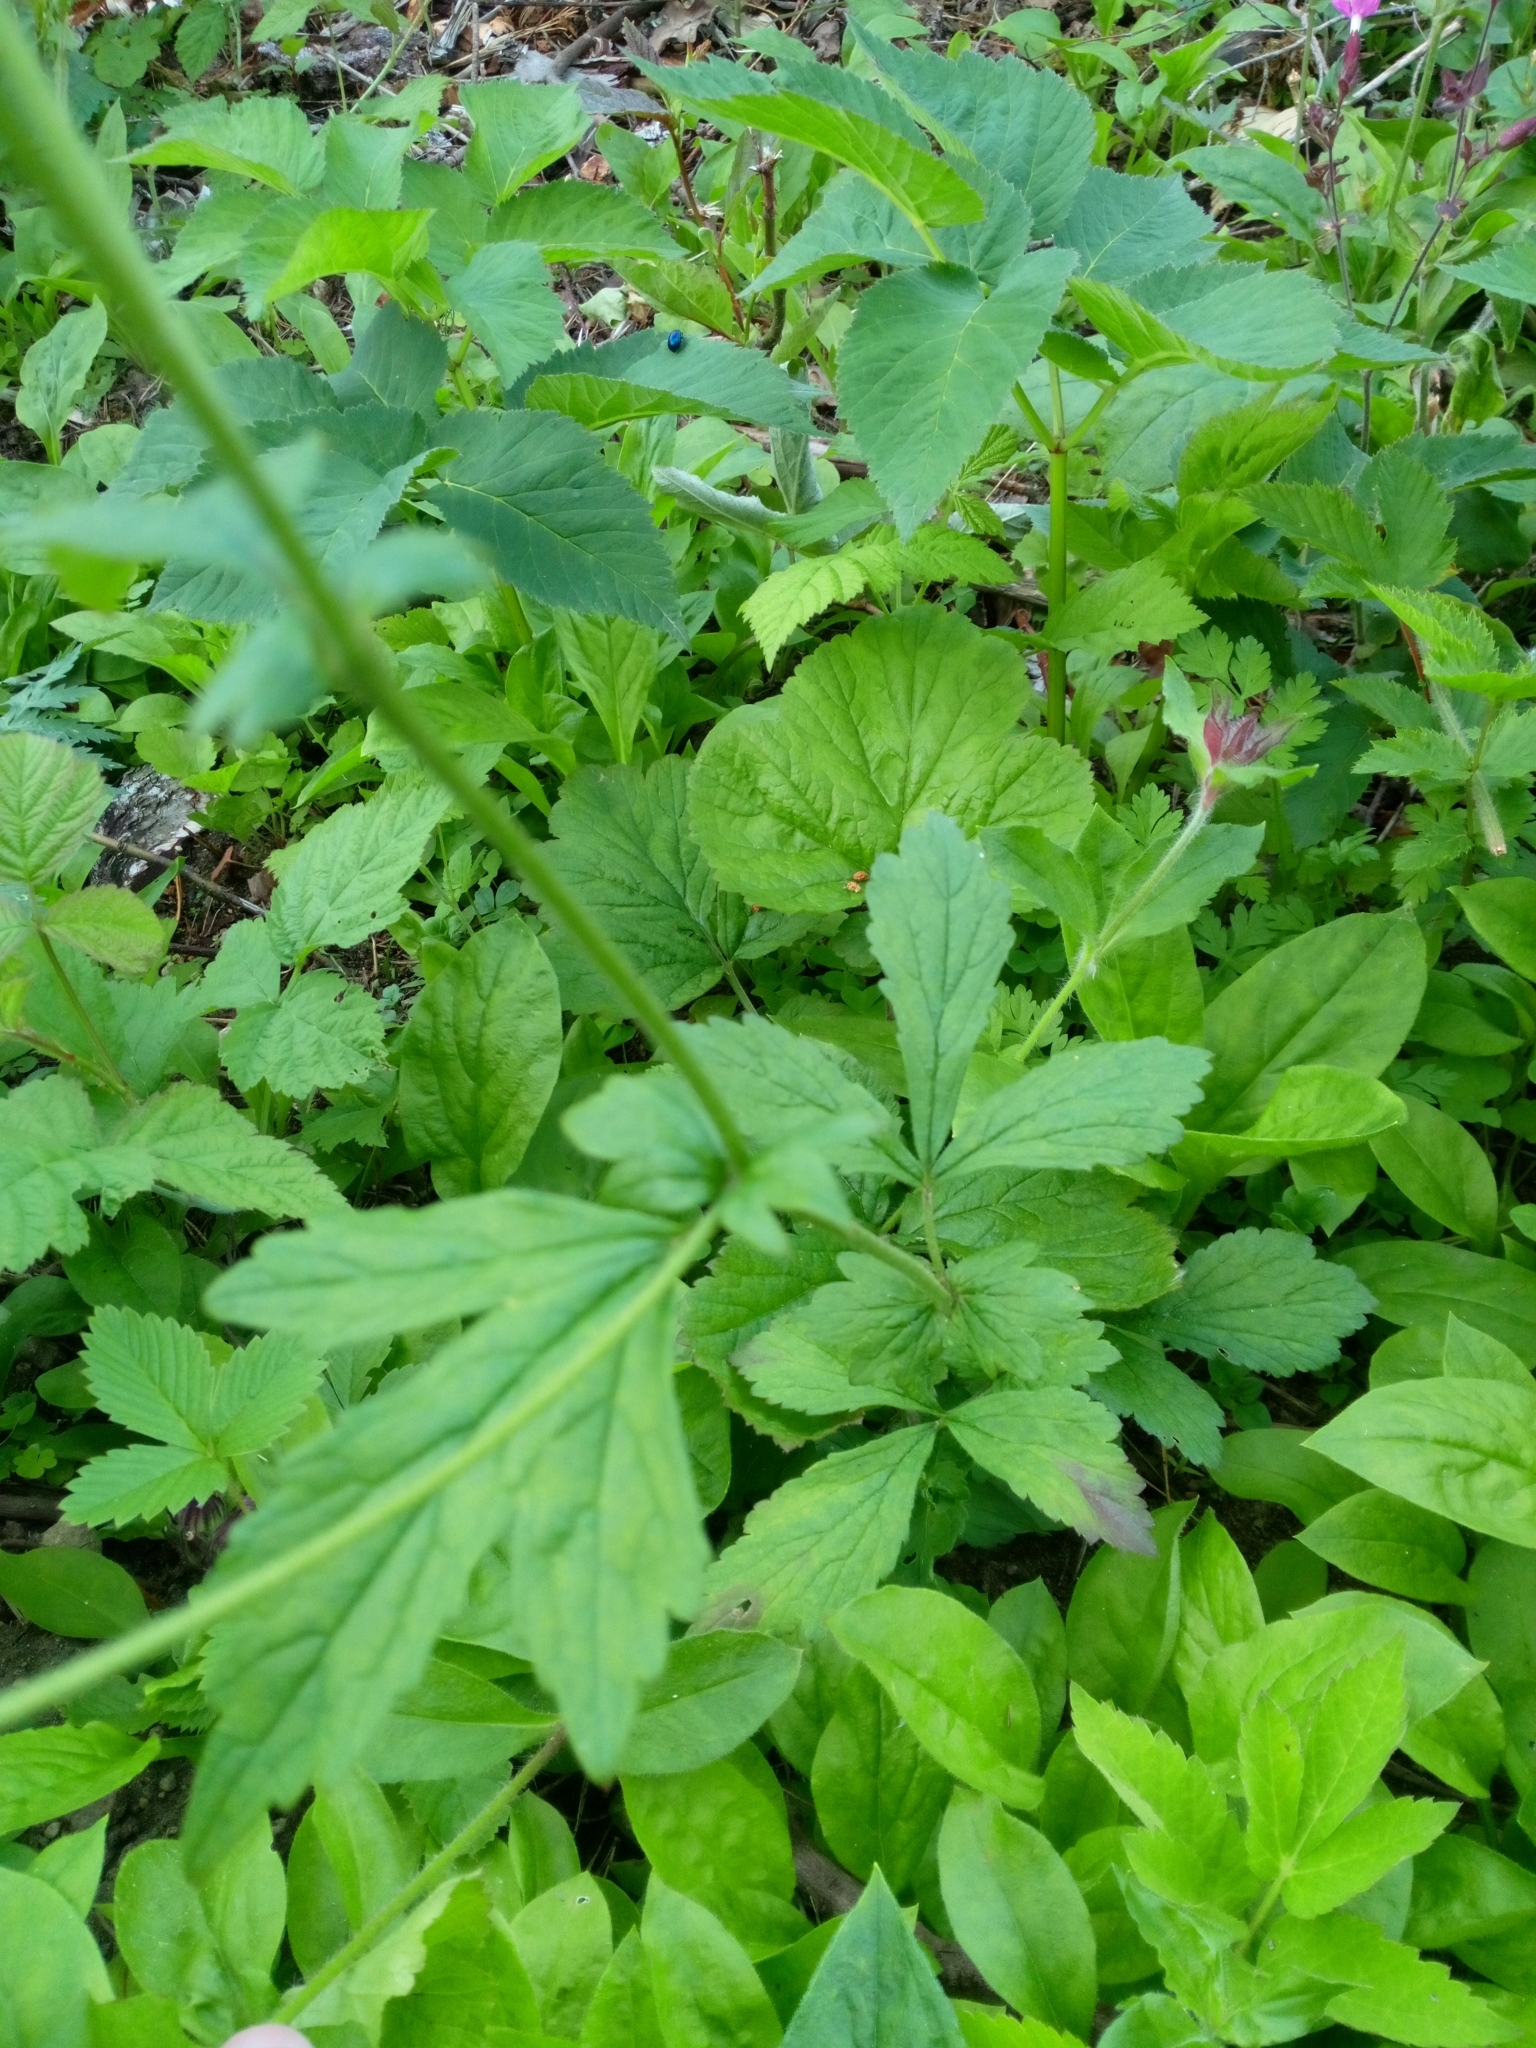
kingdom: Plantae
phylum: Tracheophyta
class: Magnoliopsida
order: Rosales
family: Rosaceae
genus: Geum
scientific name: Geum urbanum
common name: Wood avens
